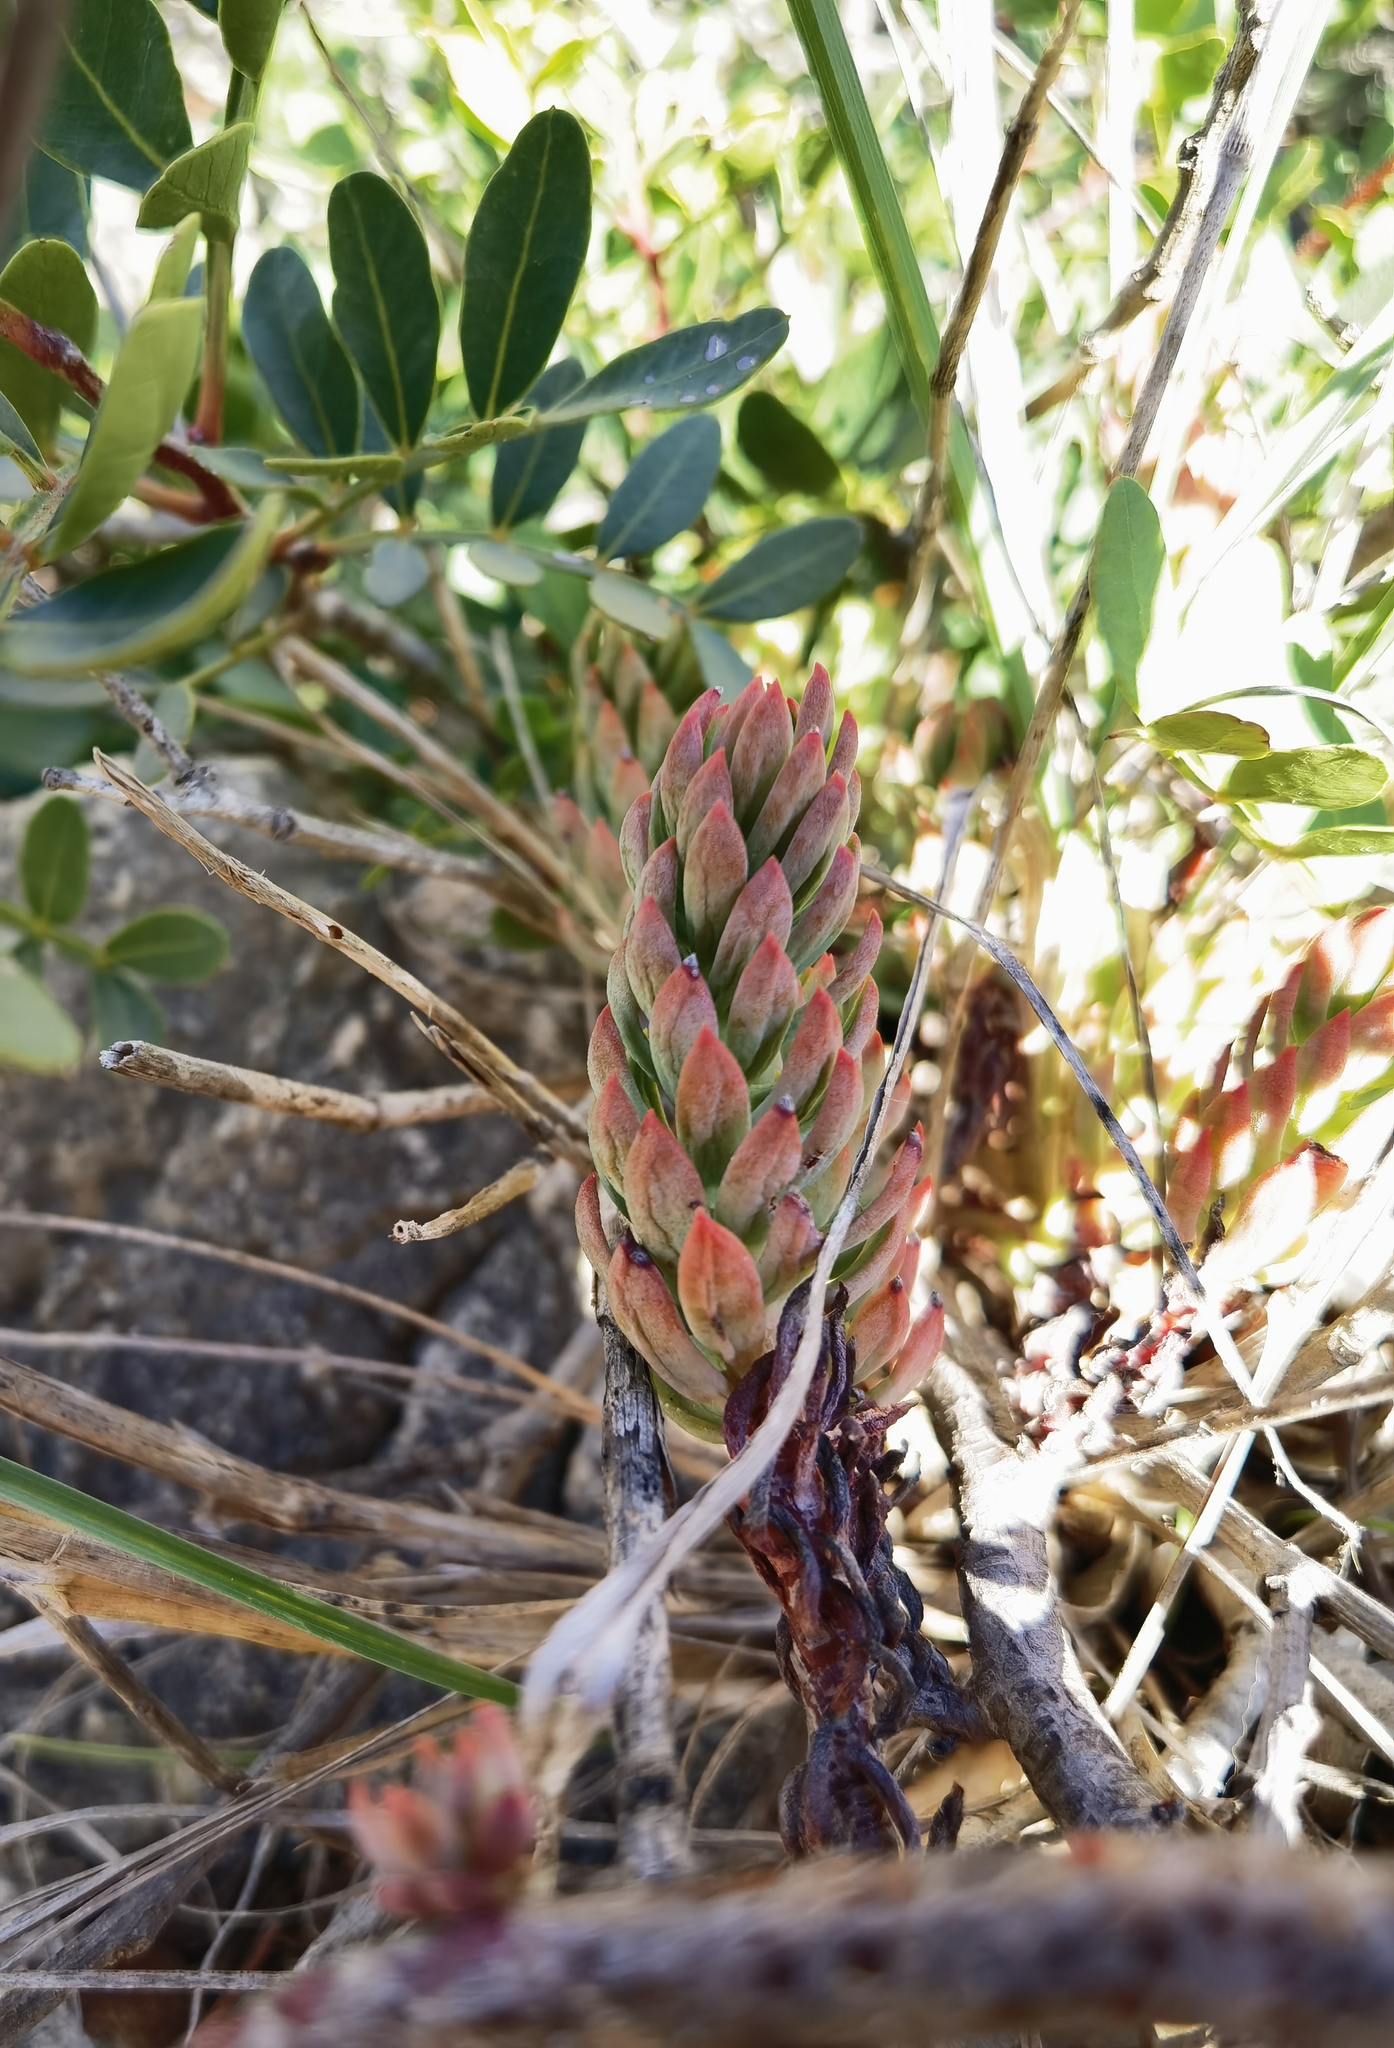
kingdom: Plantae
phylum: Tracheophyta
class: Magnoliopsida
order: Saxifragales
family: Crassulaceae
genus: Petrosedum
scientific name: Petrosedum sediforme
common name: Pale stonecrop
